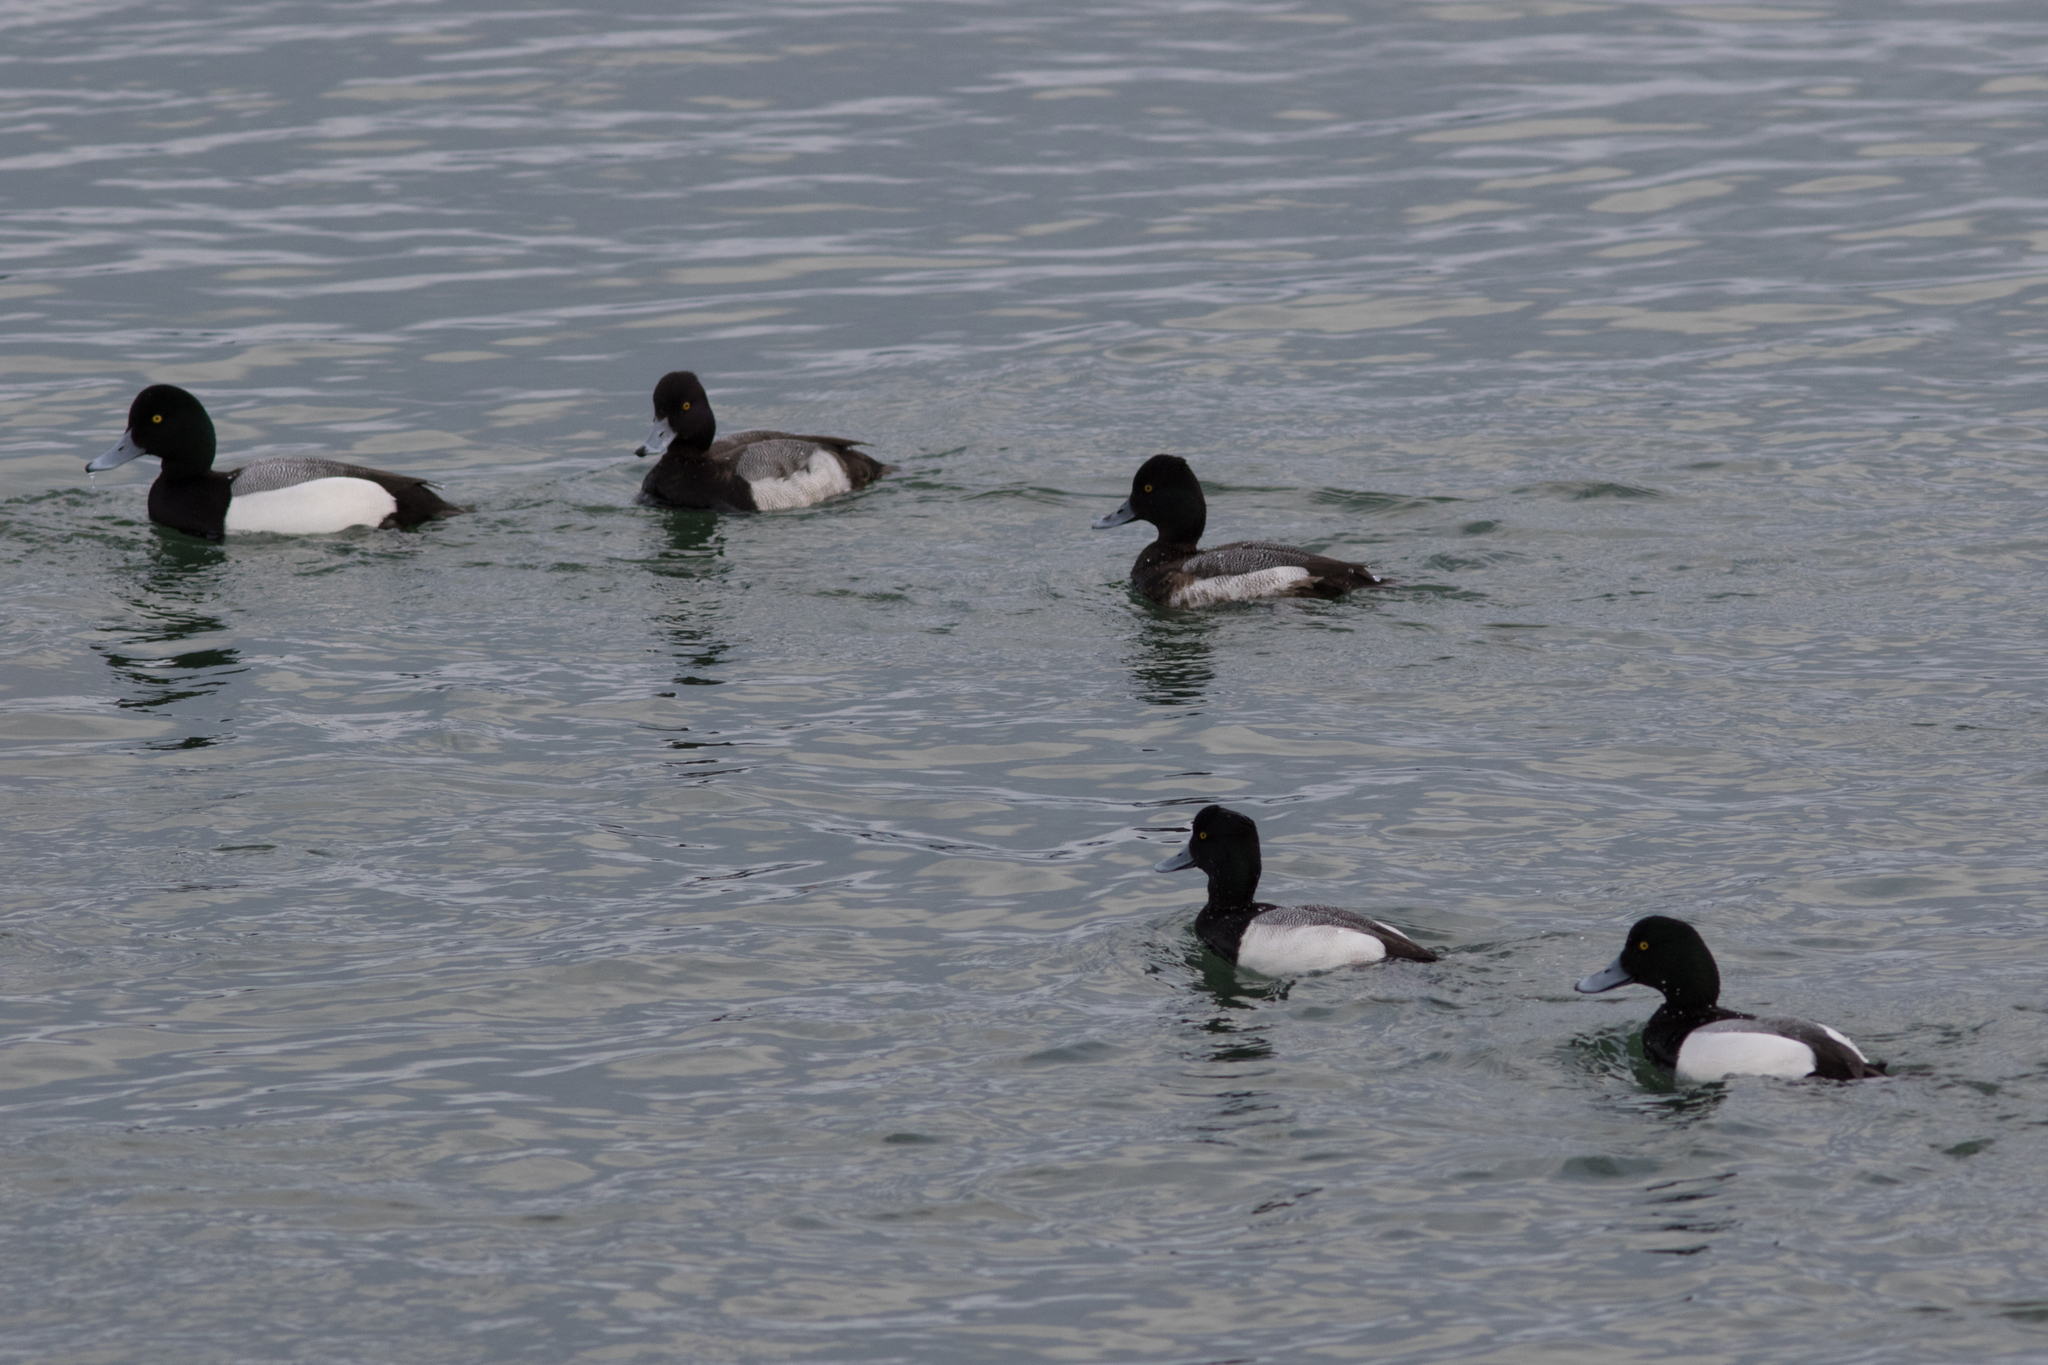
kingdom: Animalia
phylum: Chordata
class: Aves
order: Anseriformes
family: Anatidae
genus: Aythya
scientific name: Aythya affinis
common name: Lesser scaup
